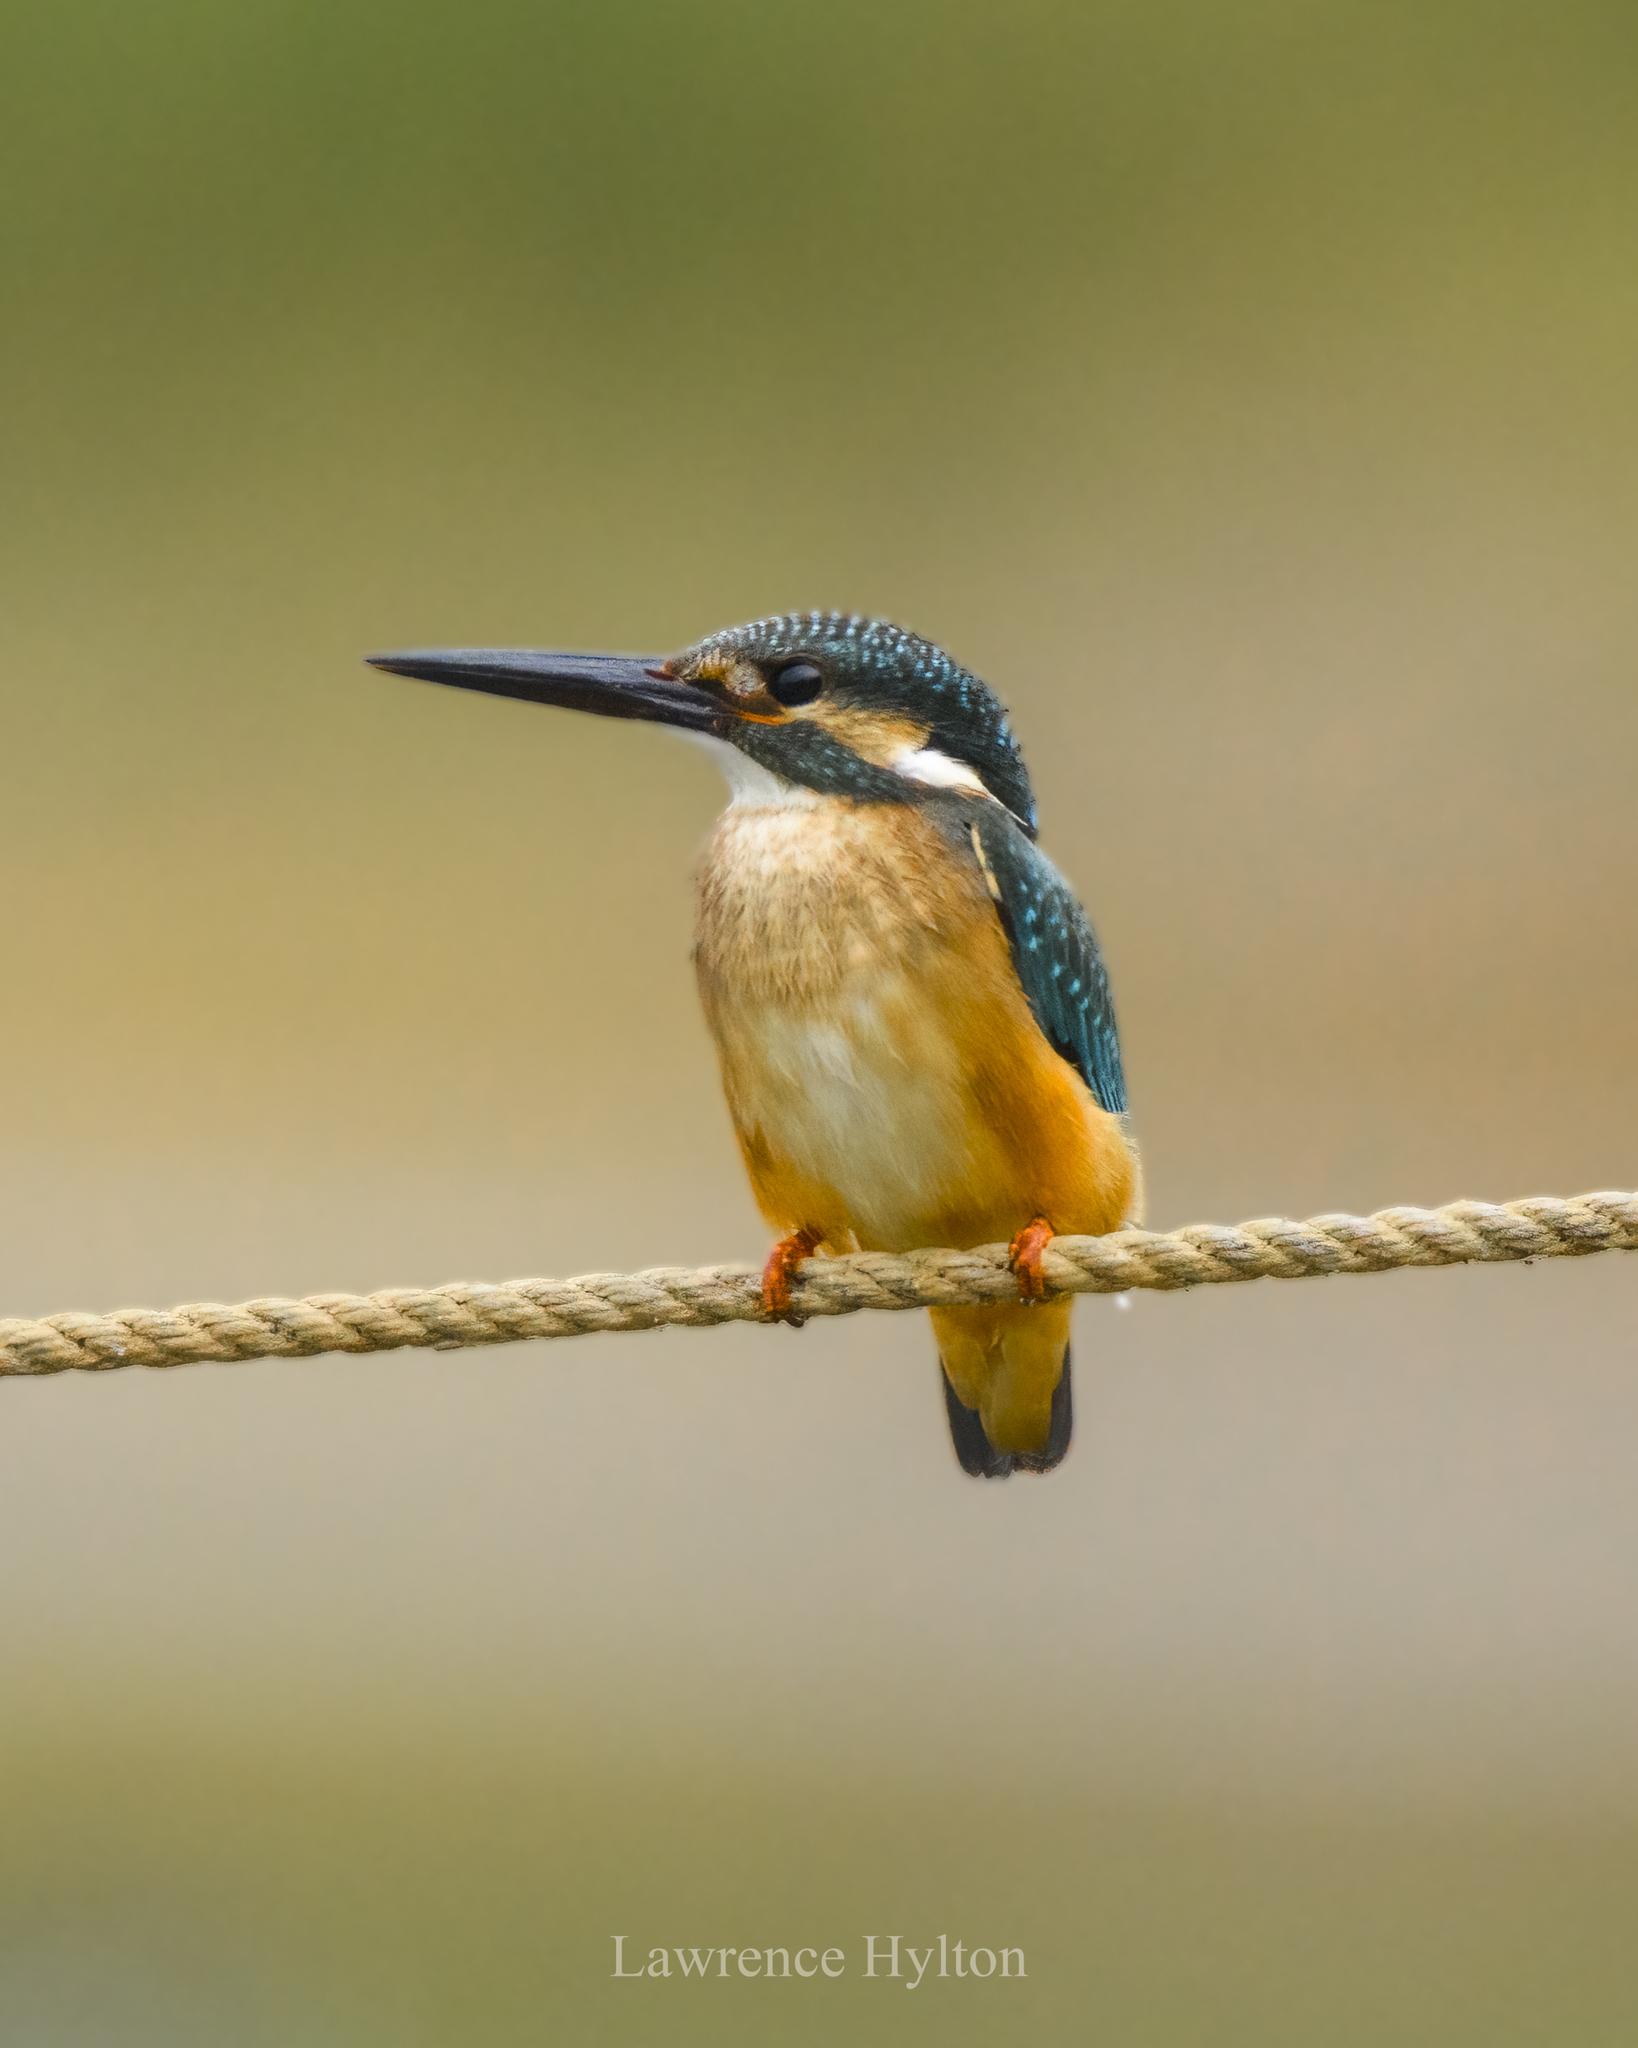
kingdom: Animalia
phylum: Chordata
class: Aves
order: Coraciiformes
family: Alcedinidae
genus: Alcedo
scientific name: Alcedo atthis
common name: Common kingfisher
